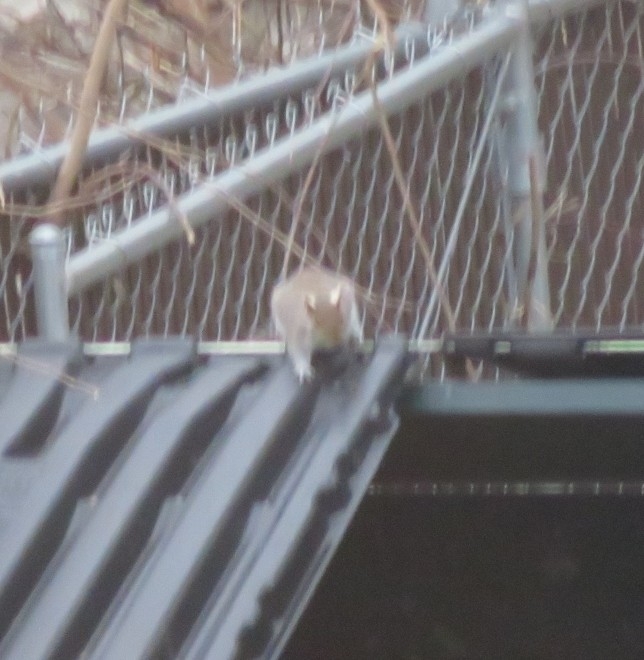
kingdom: Animalia
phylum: Chordata
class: Mammalia
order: Rodentia
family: Sciuridae
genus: Sciurus
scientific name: Sciurus carolinensis
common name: Eastern gray squirrel
